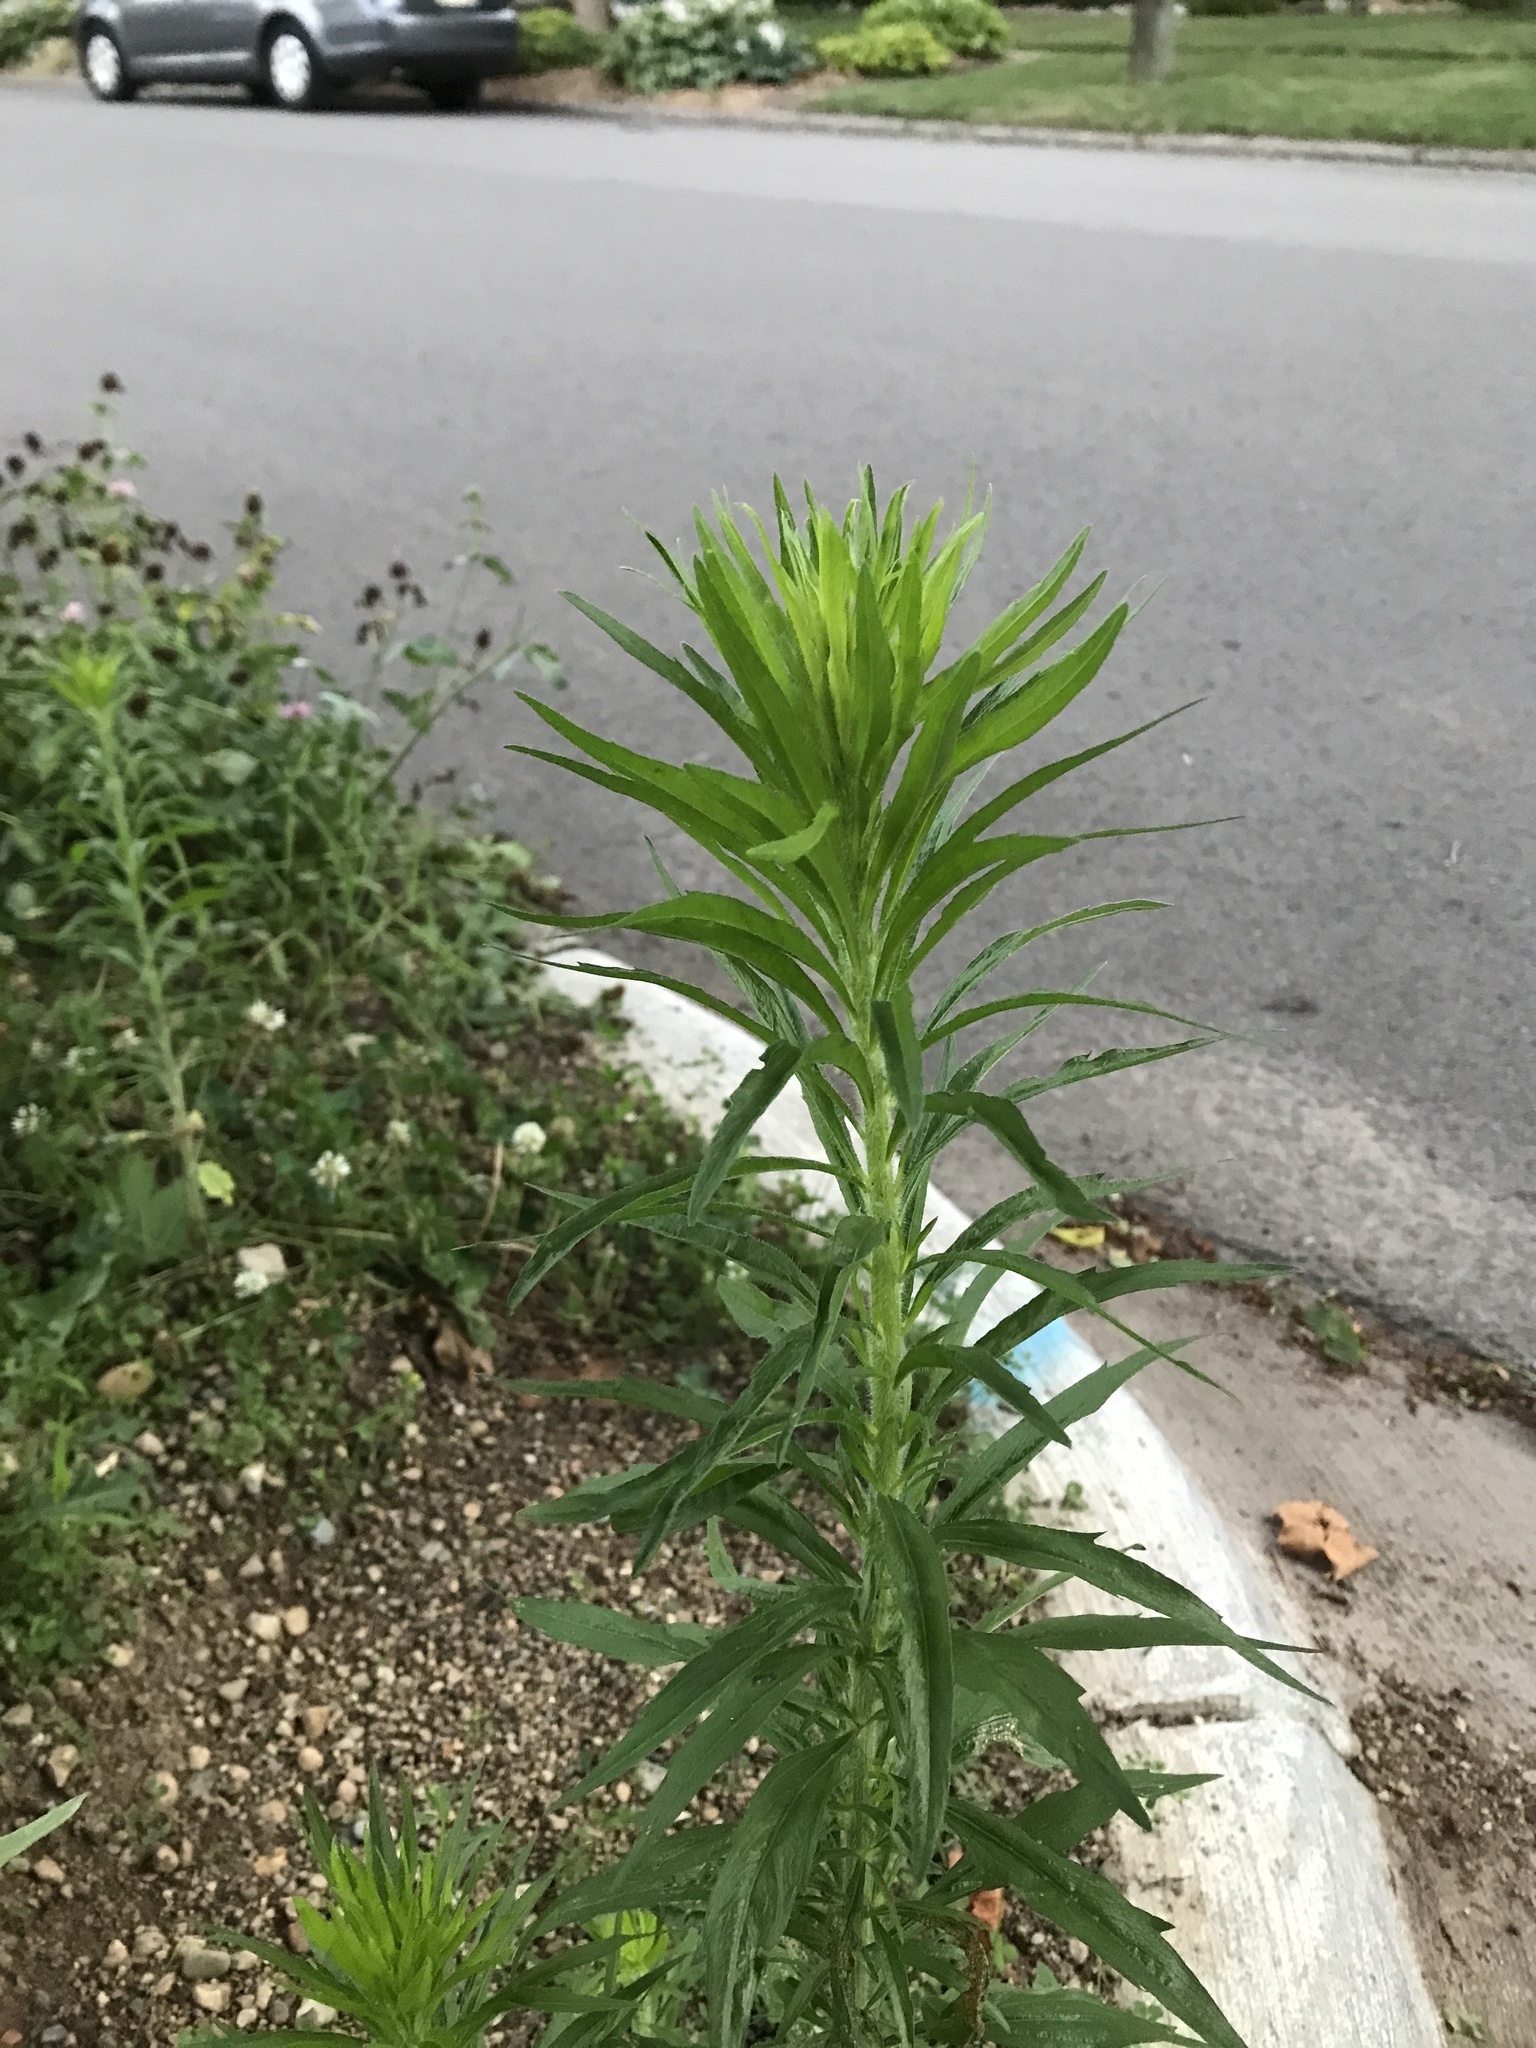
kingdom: Plantae
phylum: Tracheophyta
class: Magnoliopsida
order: Asterales
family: Asteraceae
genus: Erigeron
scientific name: Erigeron canadensis
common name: Canadian fleabane
